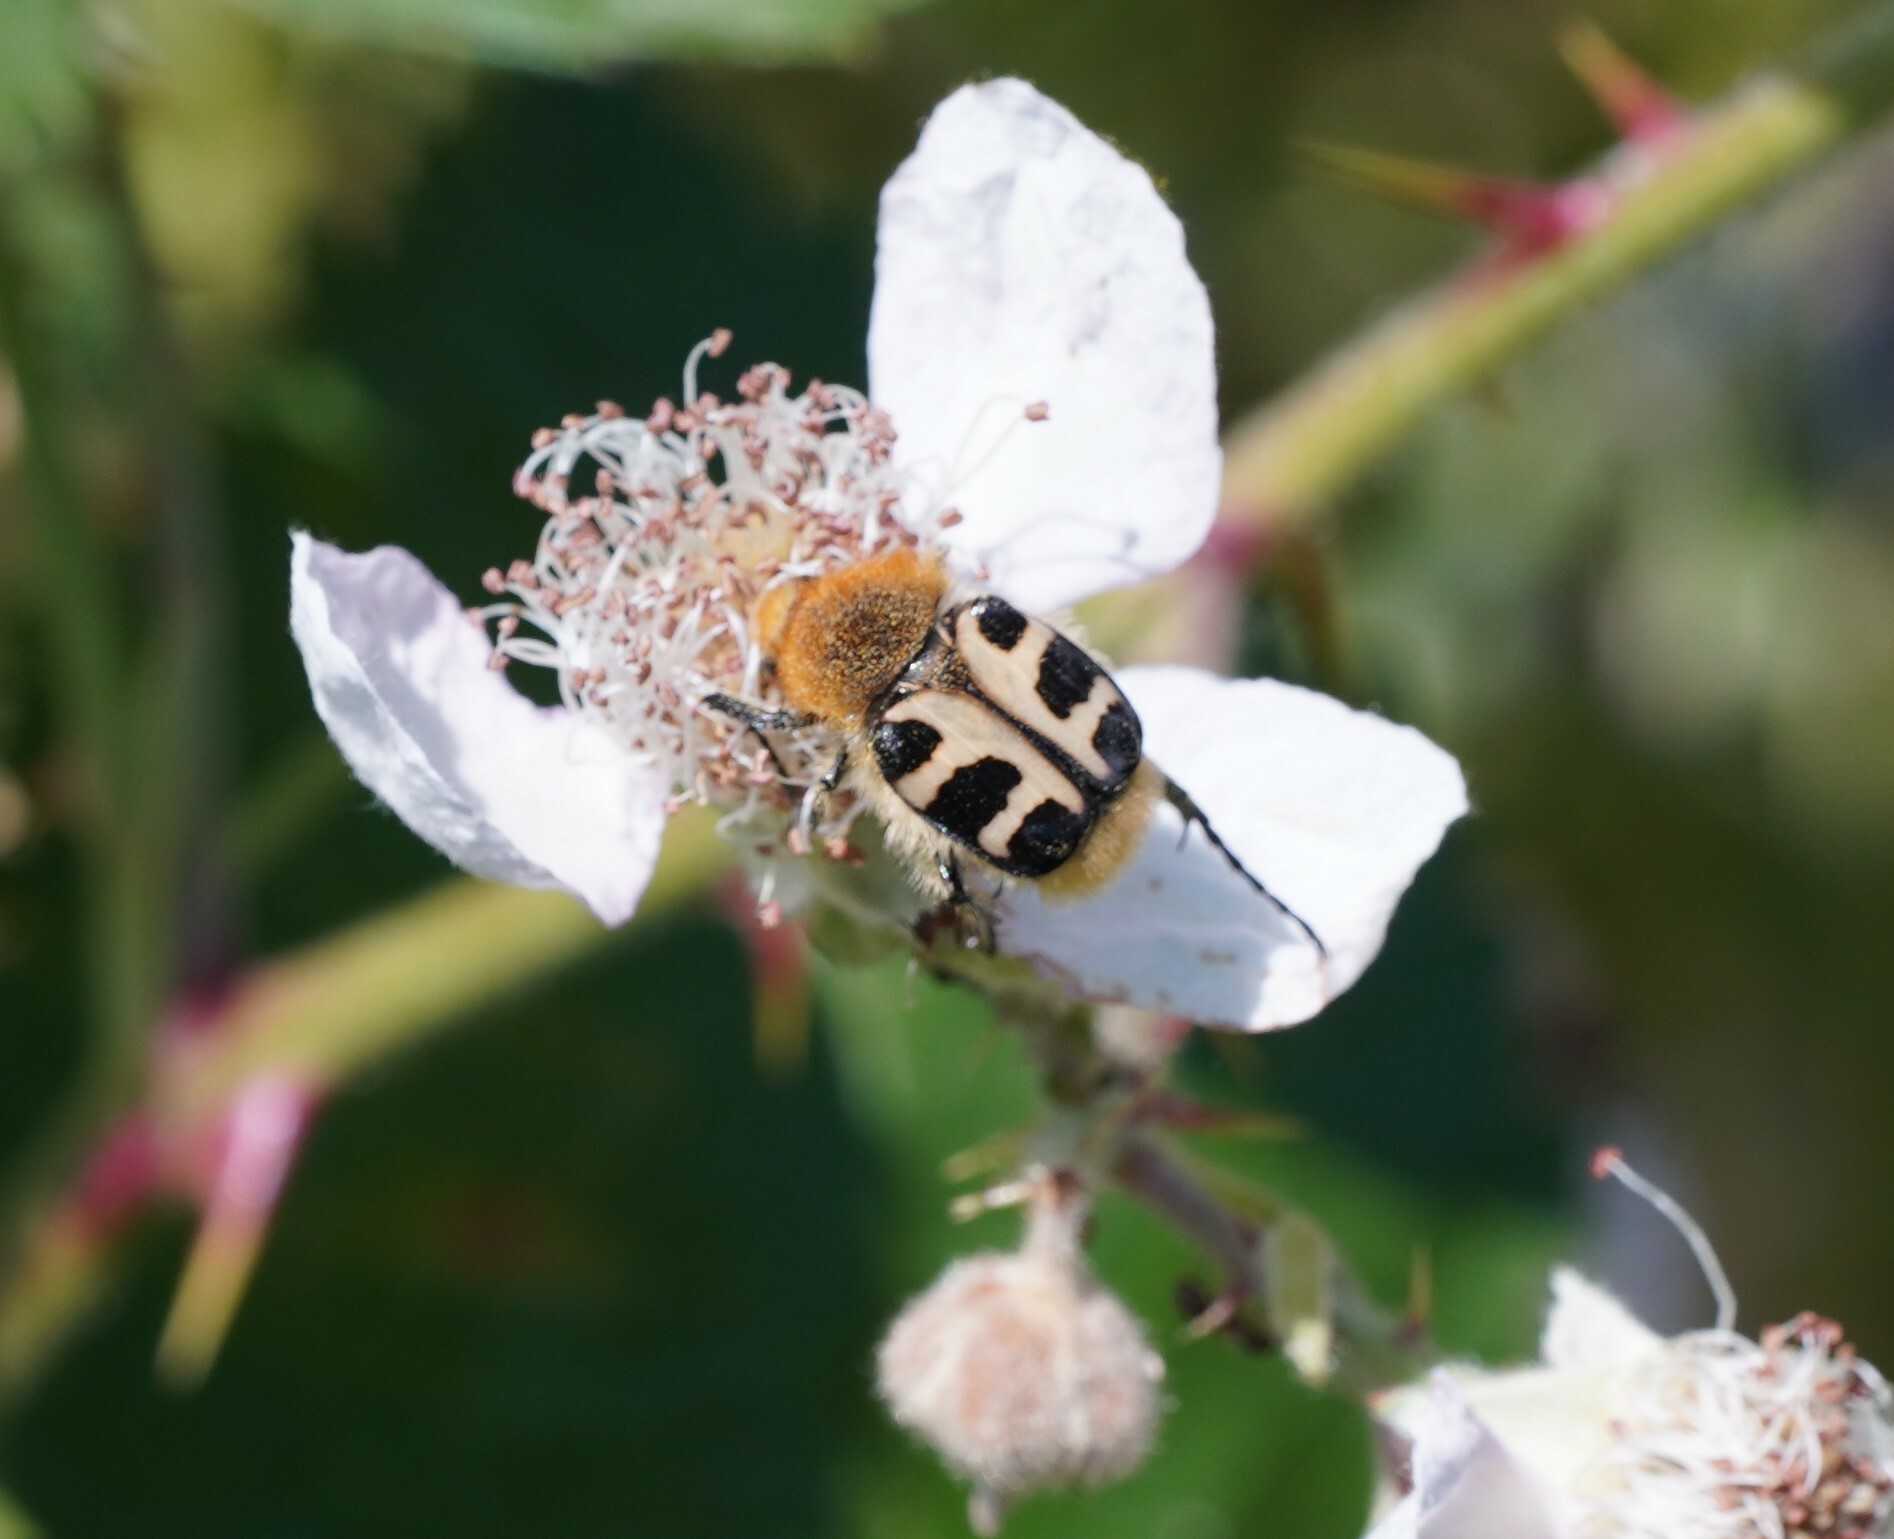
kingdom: Animalia
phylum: Arthropoda
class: Insecta
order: Coleoptera
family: Scarabaeidae
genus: Trichius
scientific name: Trichius gallicus
